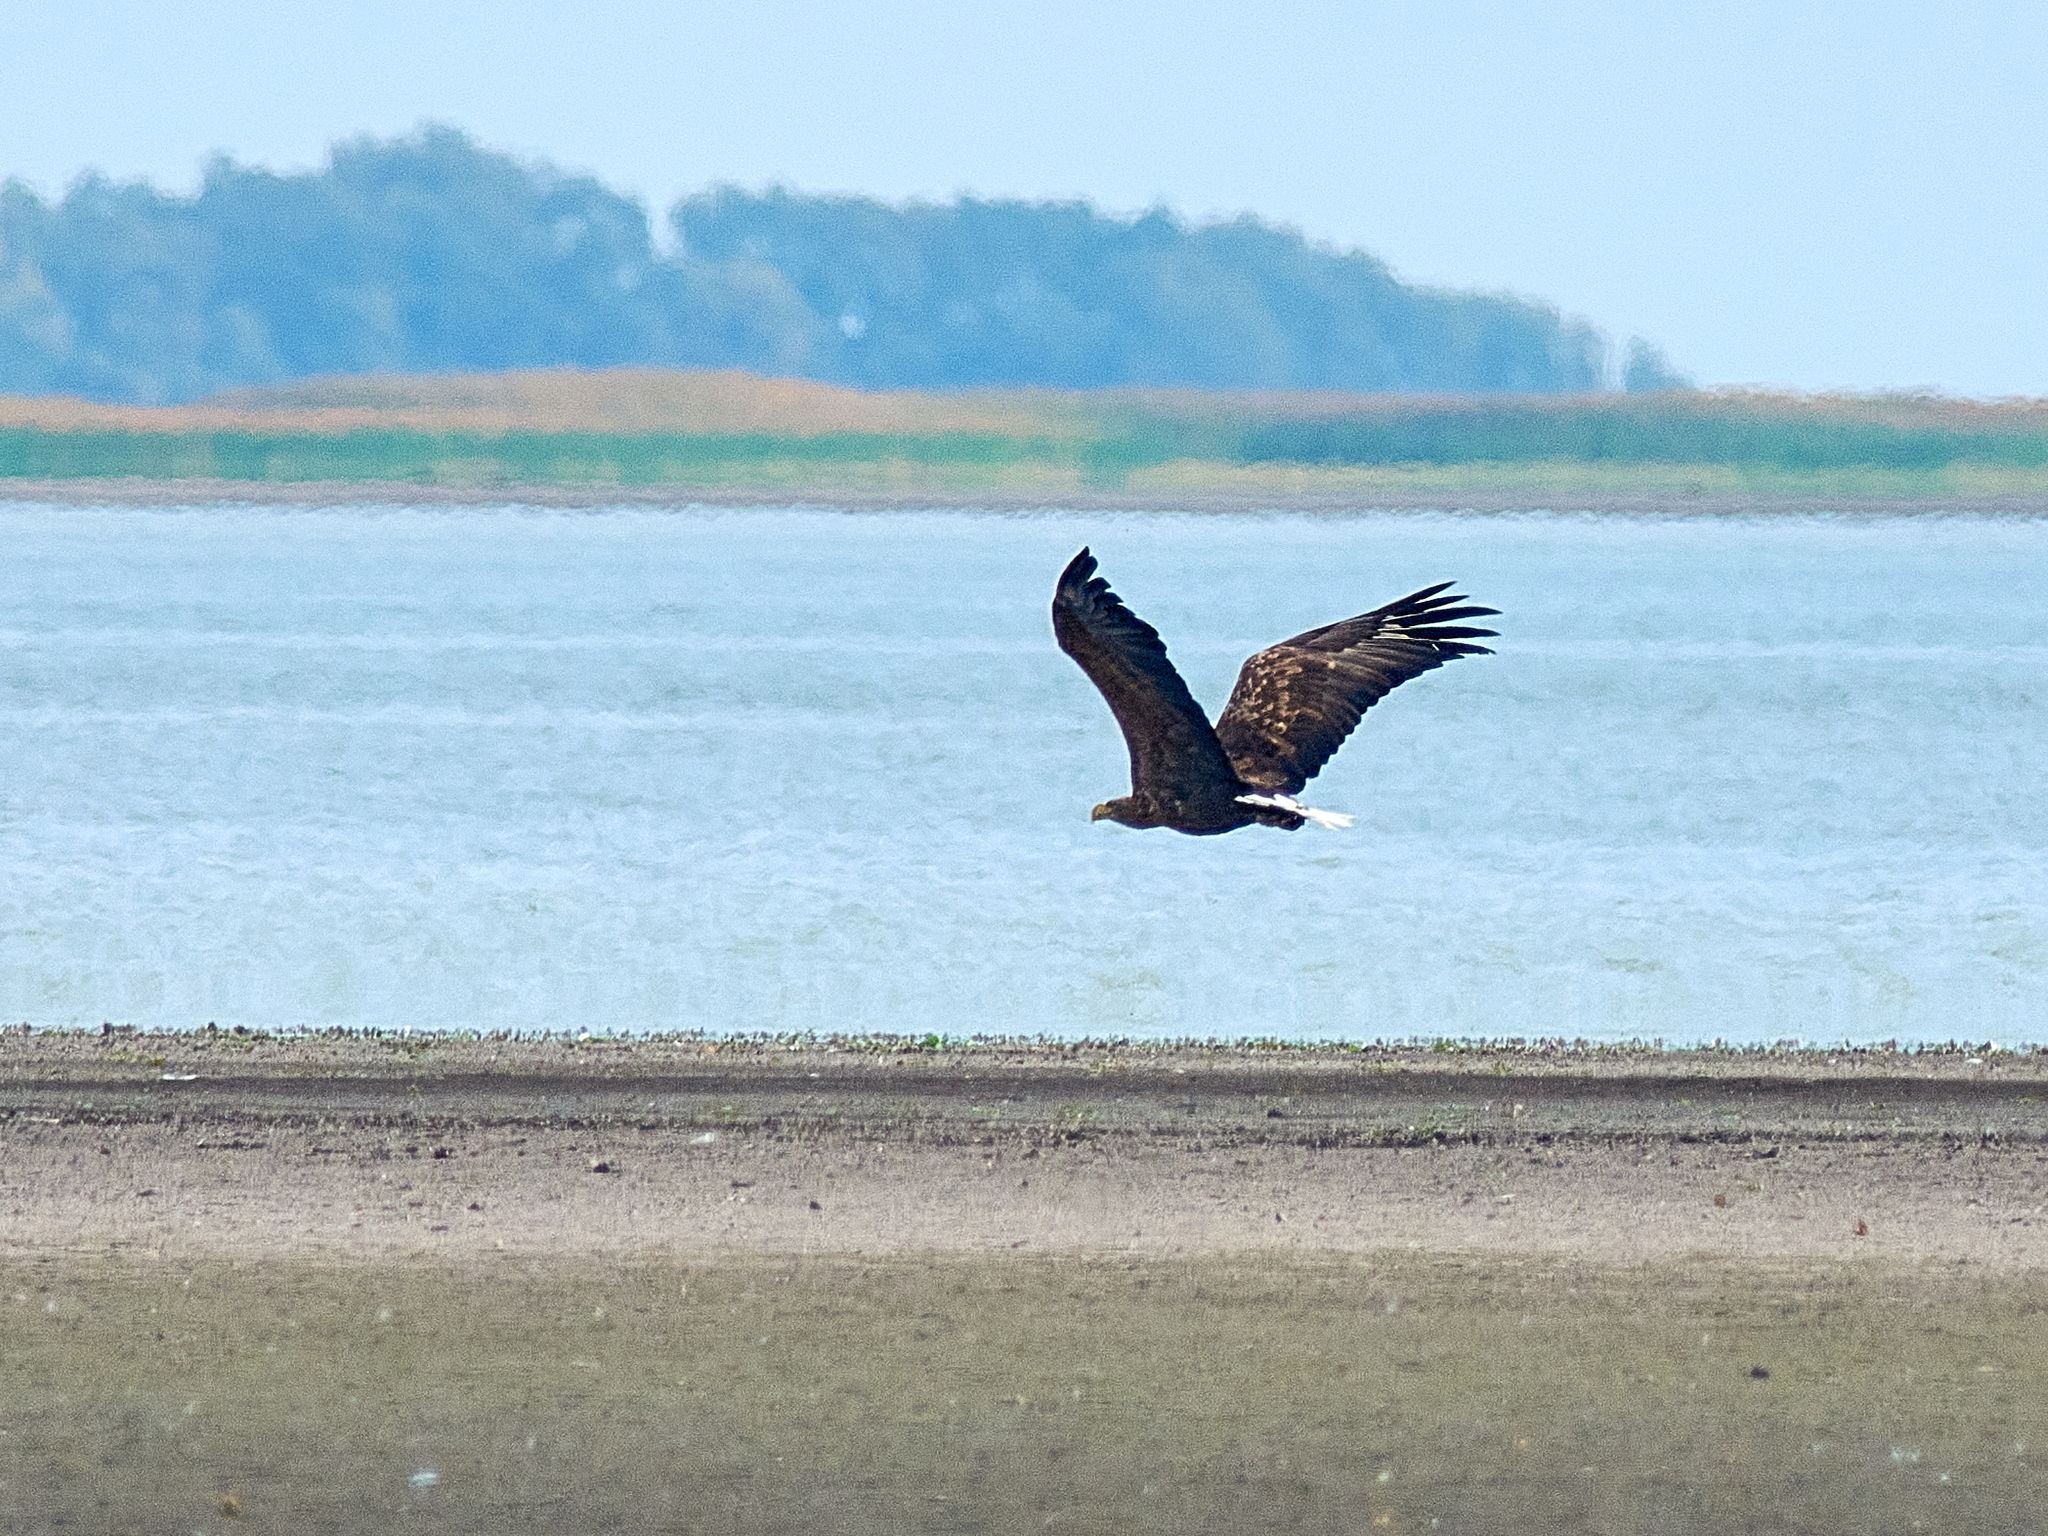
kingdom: Animalia
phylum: Chordata
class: Aves
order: Accipitriformes
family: Accipitridae
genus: Haliaeetus
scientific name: Haliaeetus albicilla
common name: White-tailed eagle
